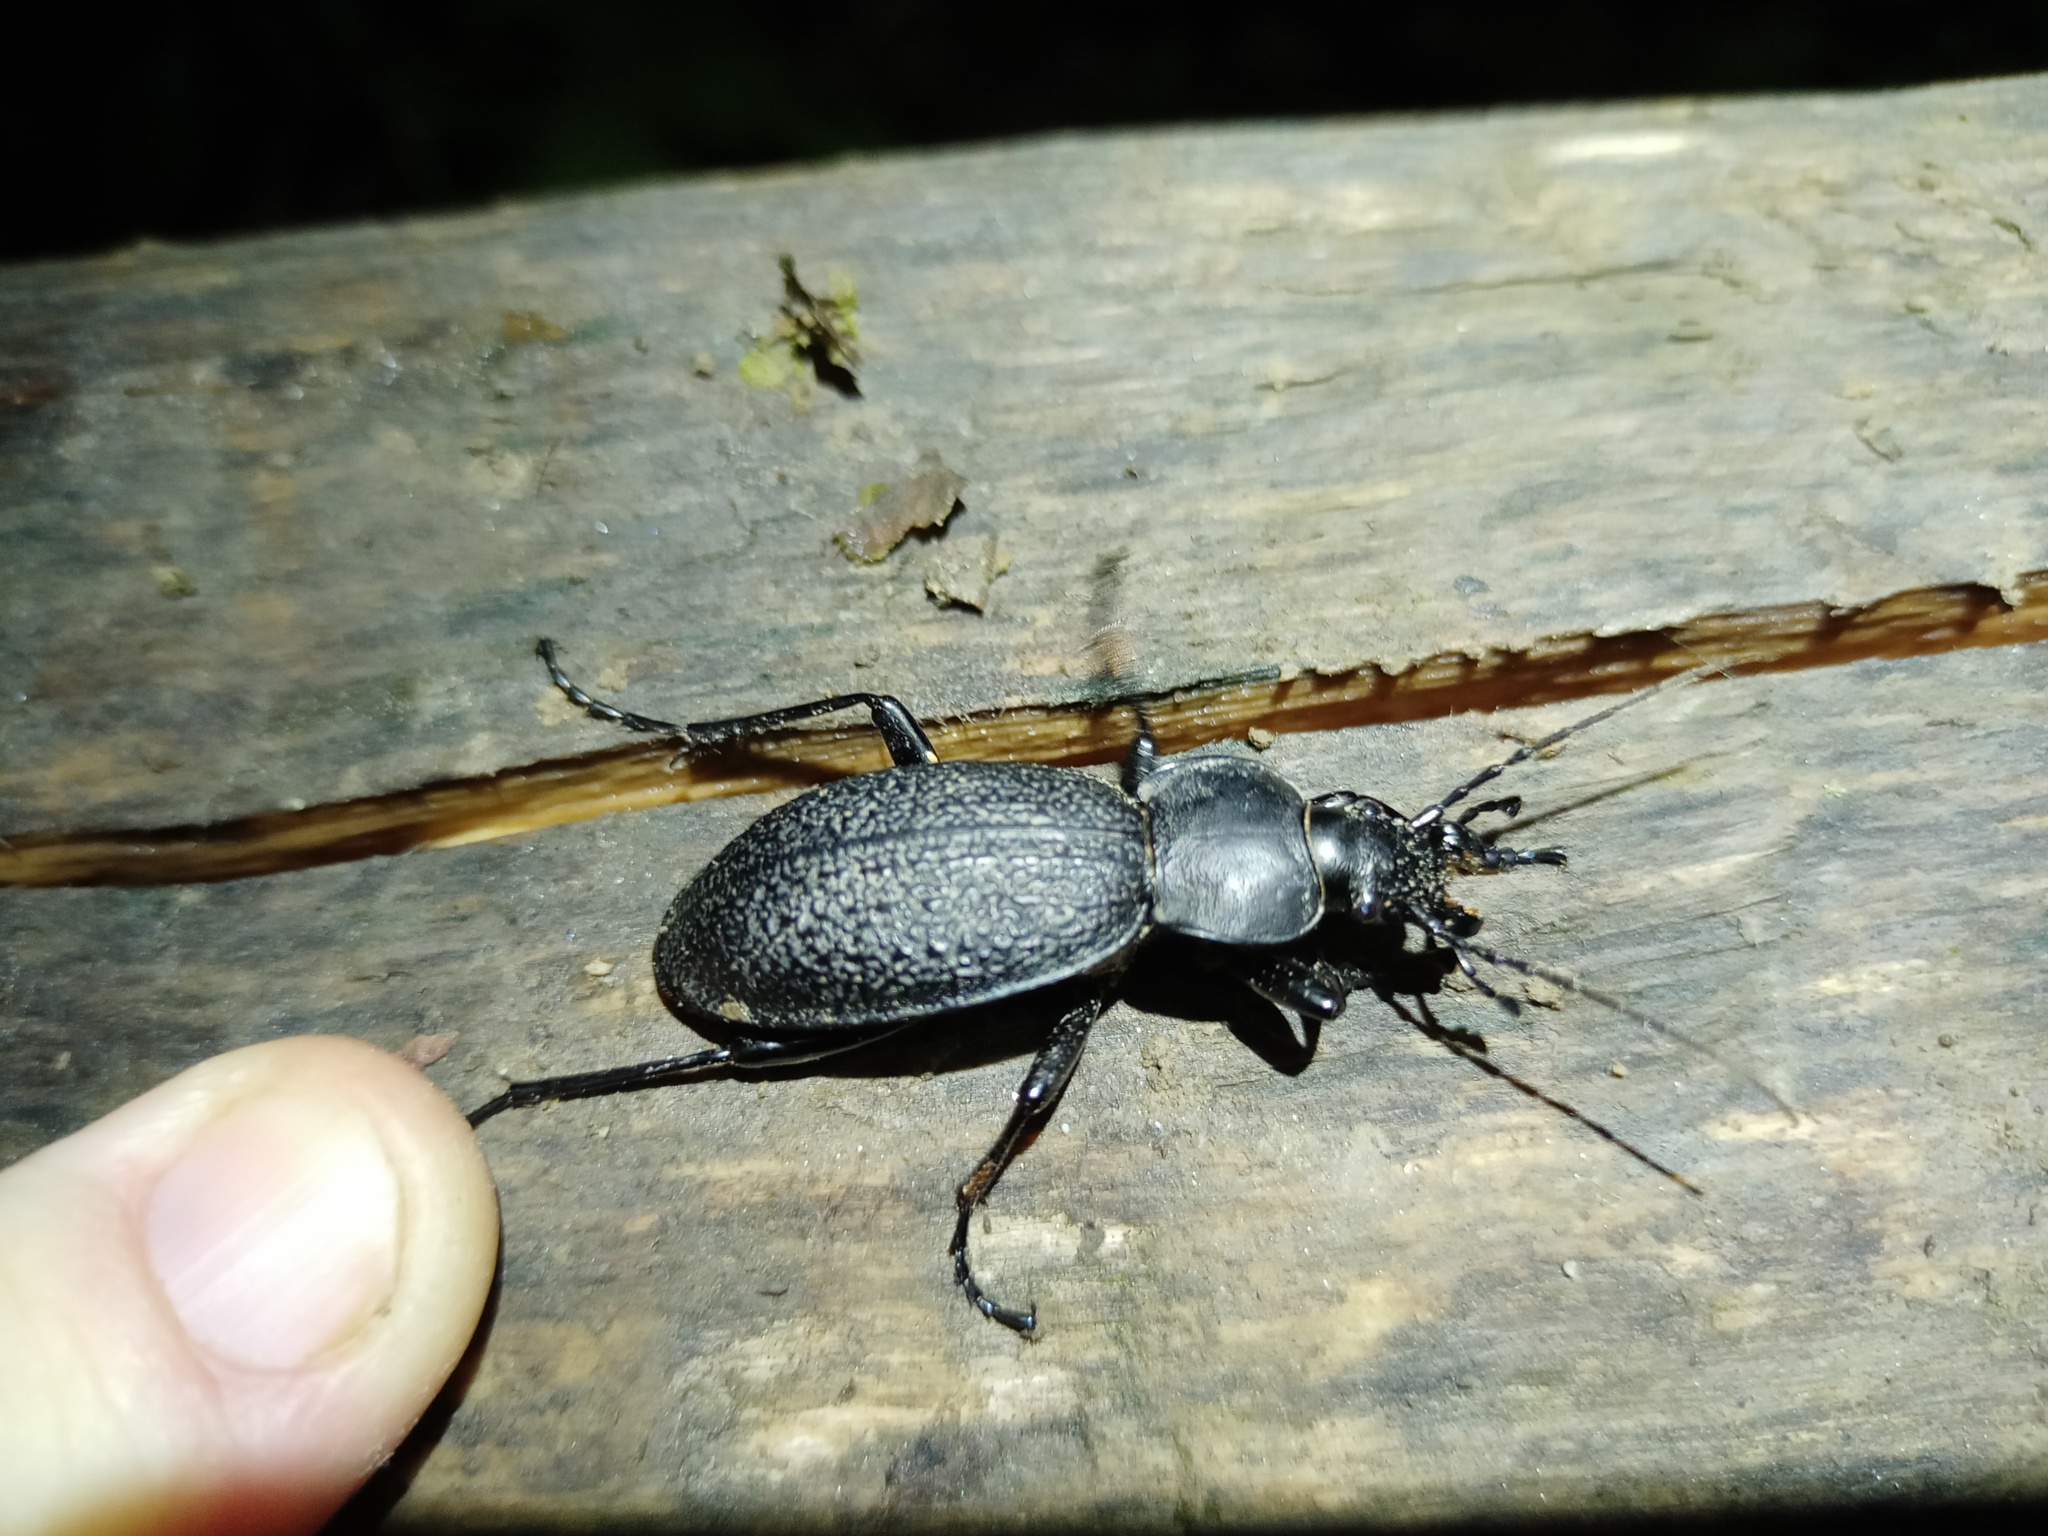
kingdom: Animalia
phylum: Arthropoda
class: Insecta
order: Coleoptera
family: Carabidae
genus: Carabus
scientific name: Carabus coriaceus
